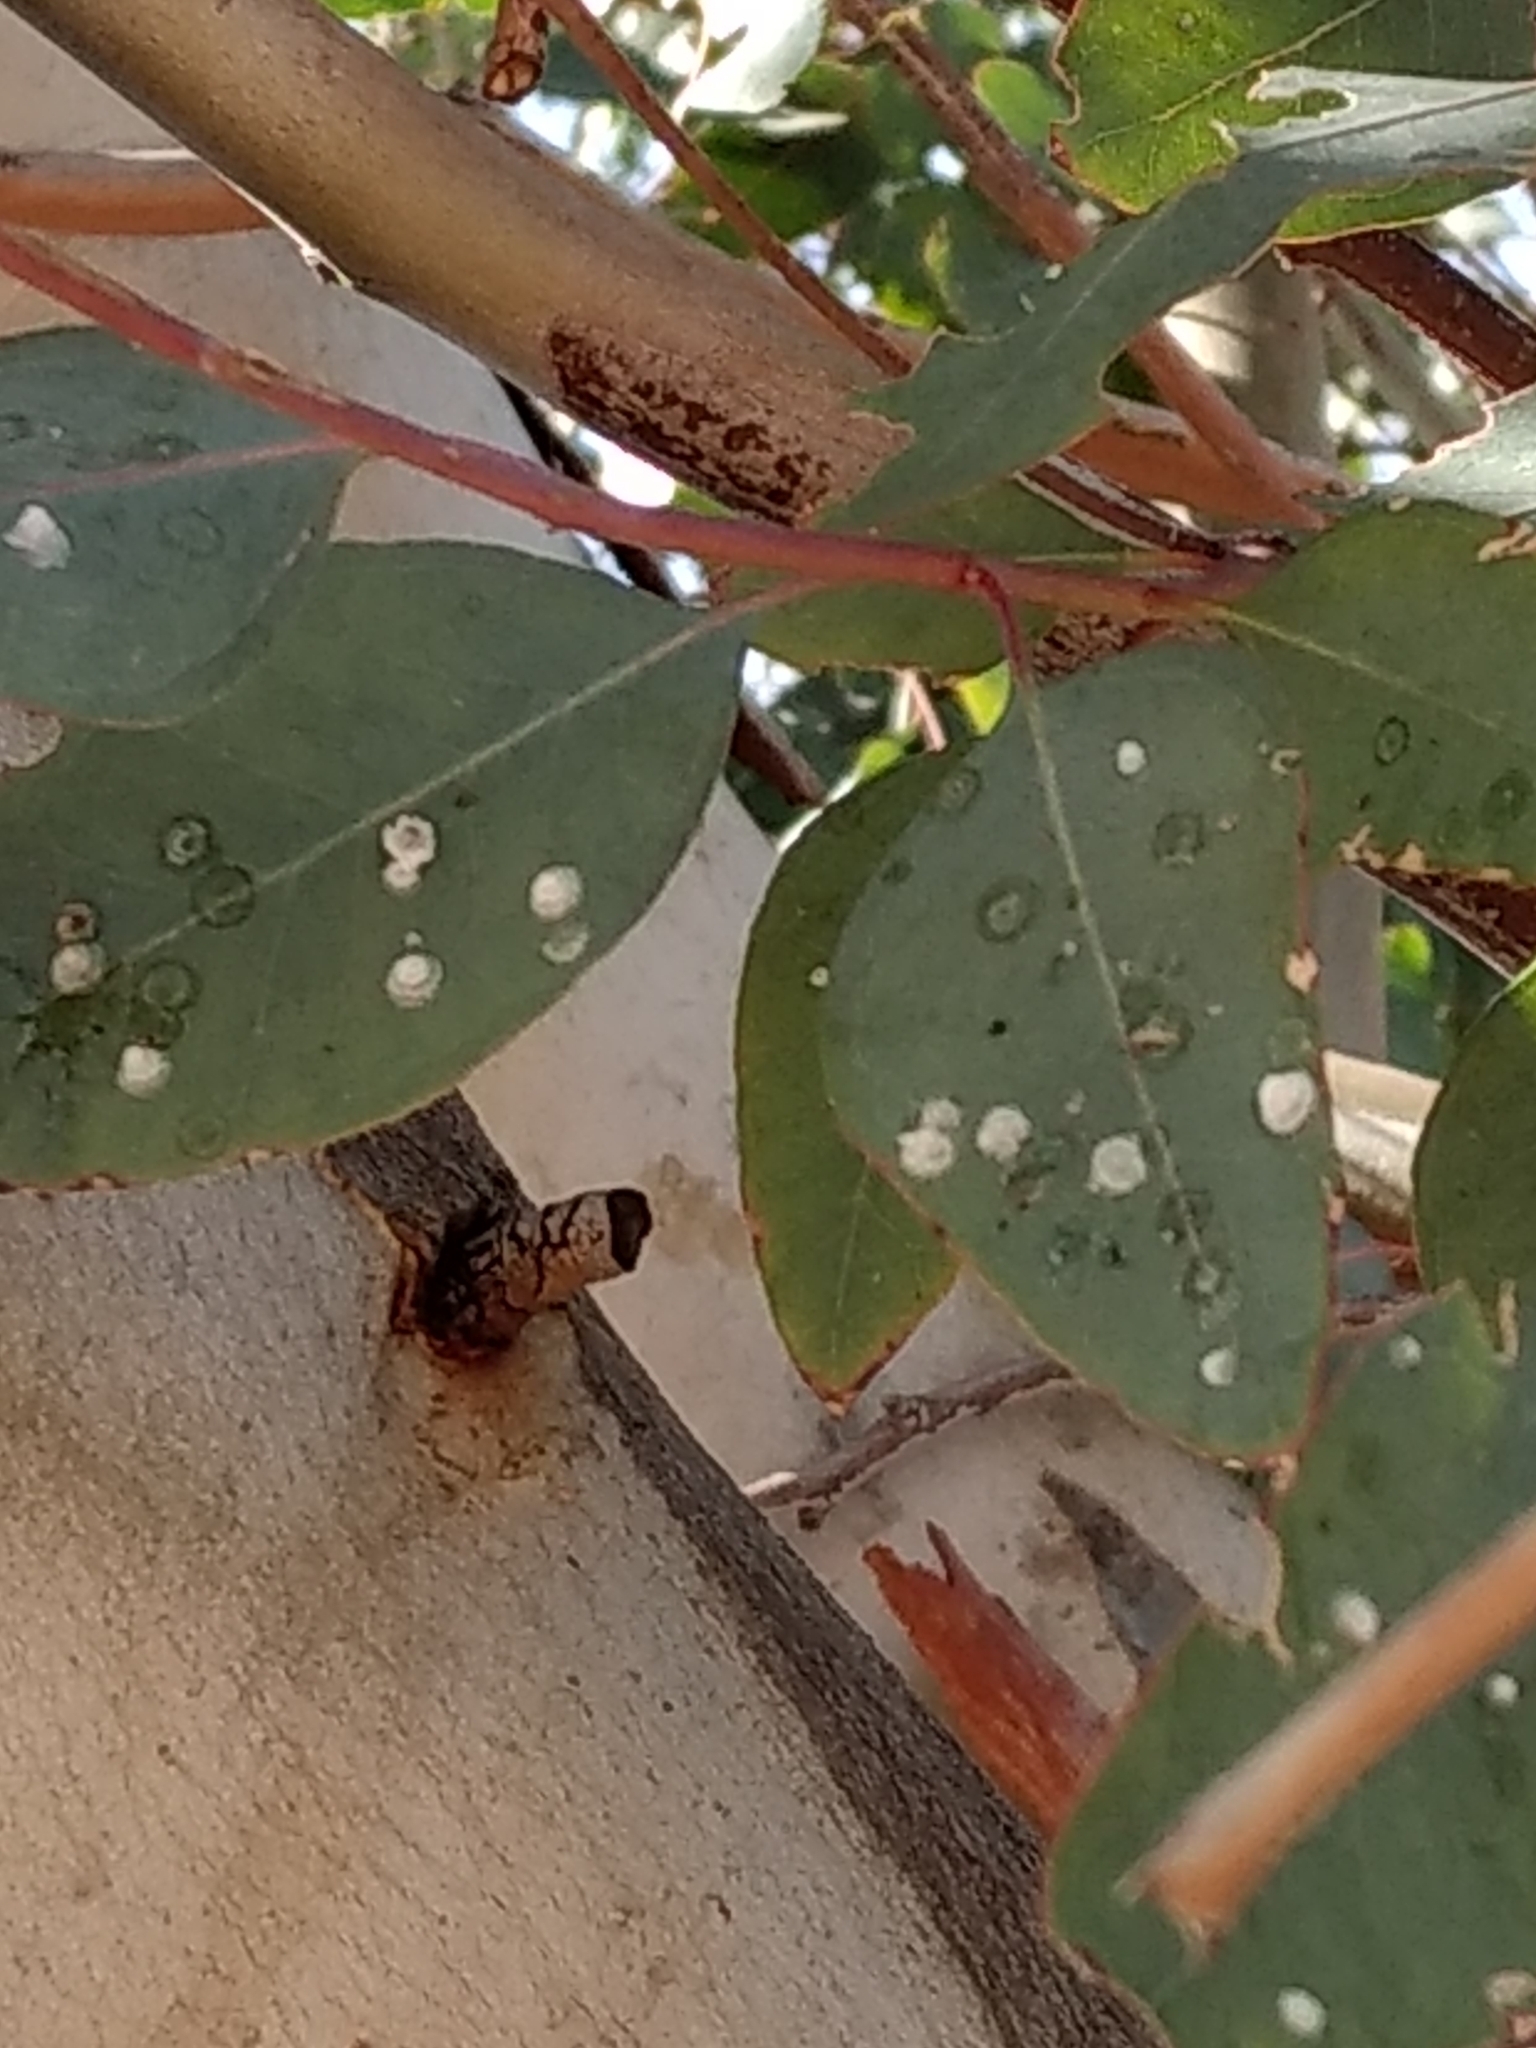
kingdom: Animalia
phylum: Arthropoda
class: Insecta
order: Hemiptera
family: Aphalaridae
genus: Glycaspis
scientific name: Glycaspis brimblecombei
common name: Red gum lerp psyllid
